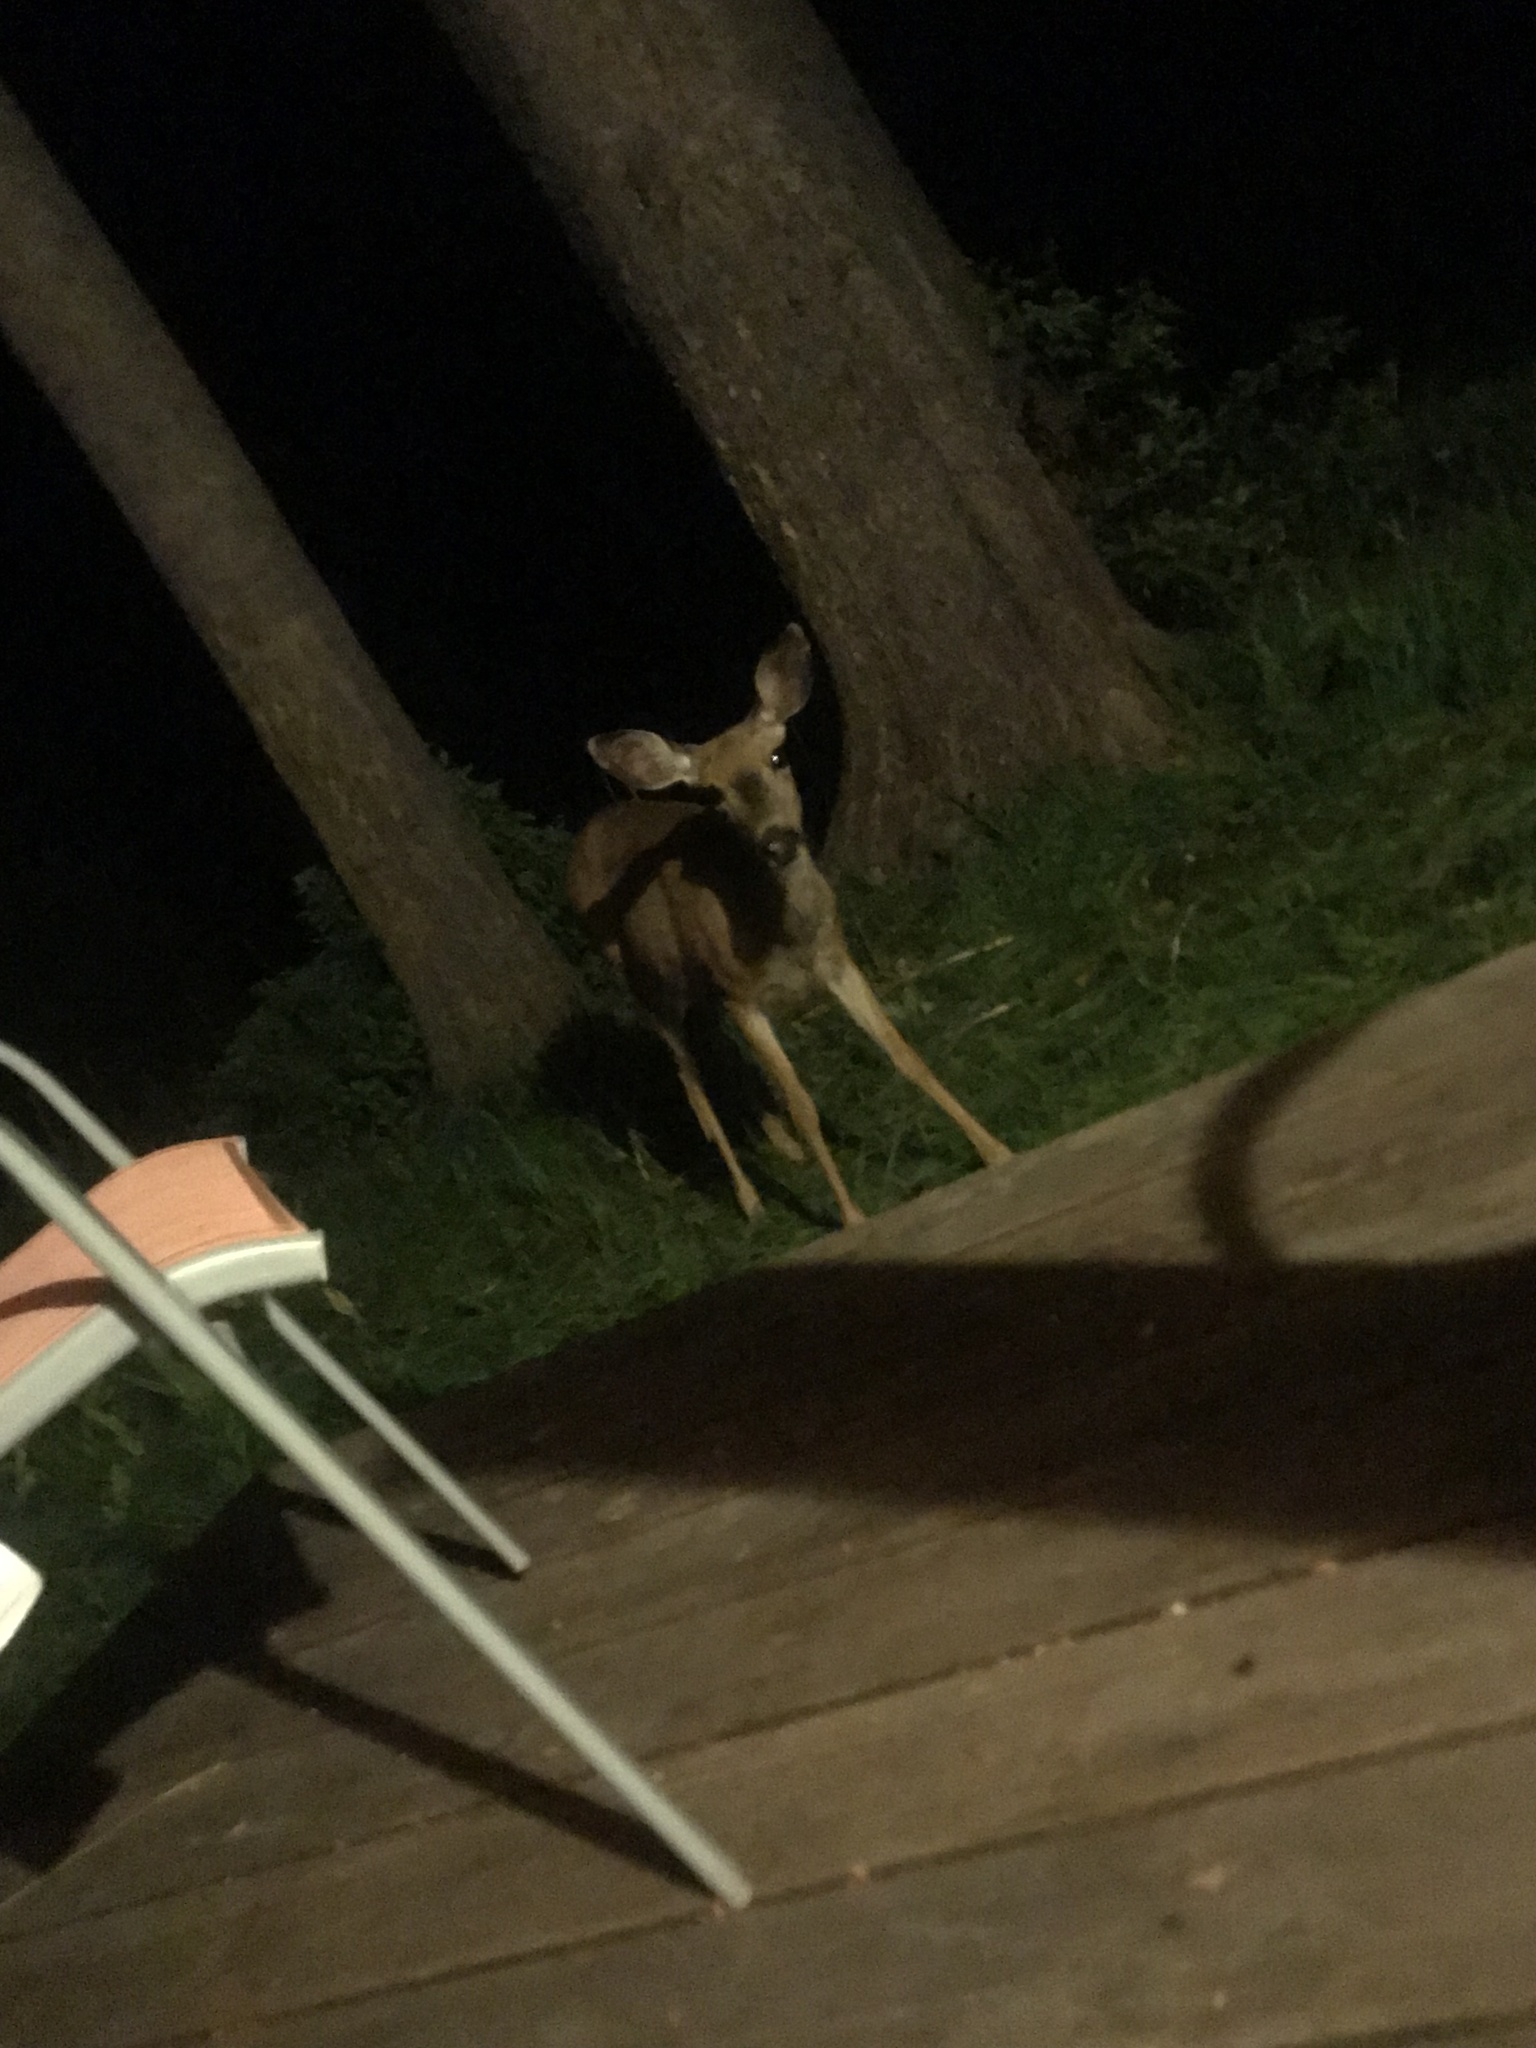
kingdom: Animalia
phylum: Chordata
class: Mammalia
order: Artiodactyla
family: Cervidae
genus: Odocoileus
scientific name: Odocoileus hemionus
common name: Mule deer
